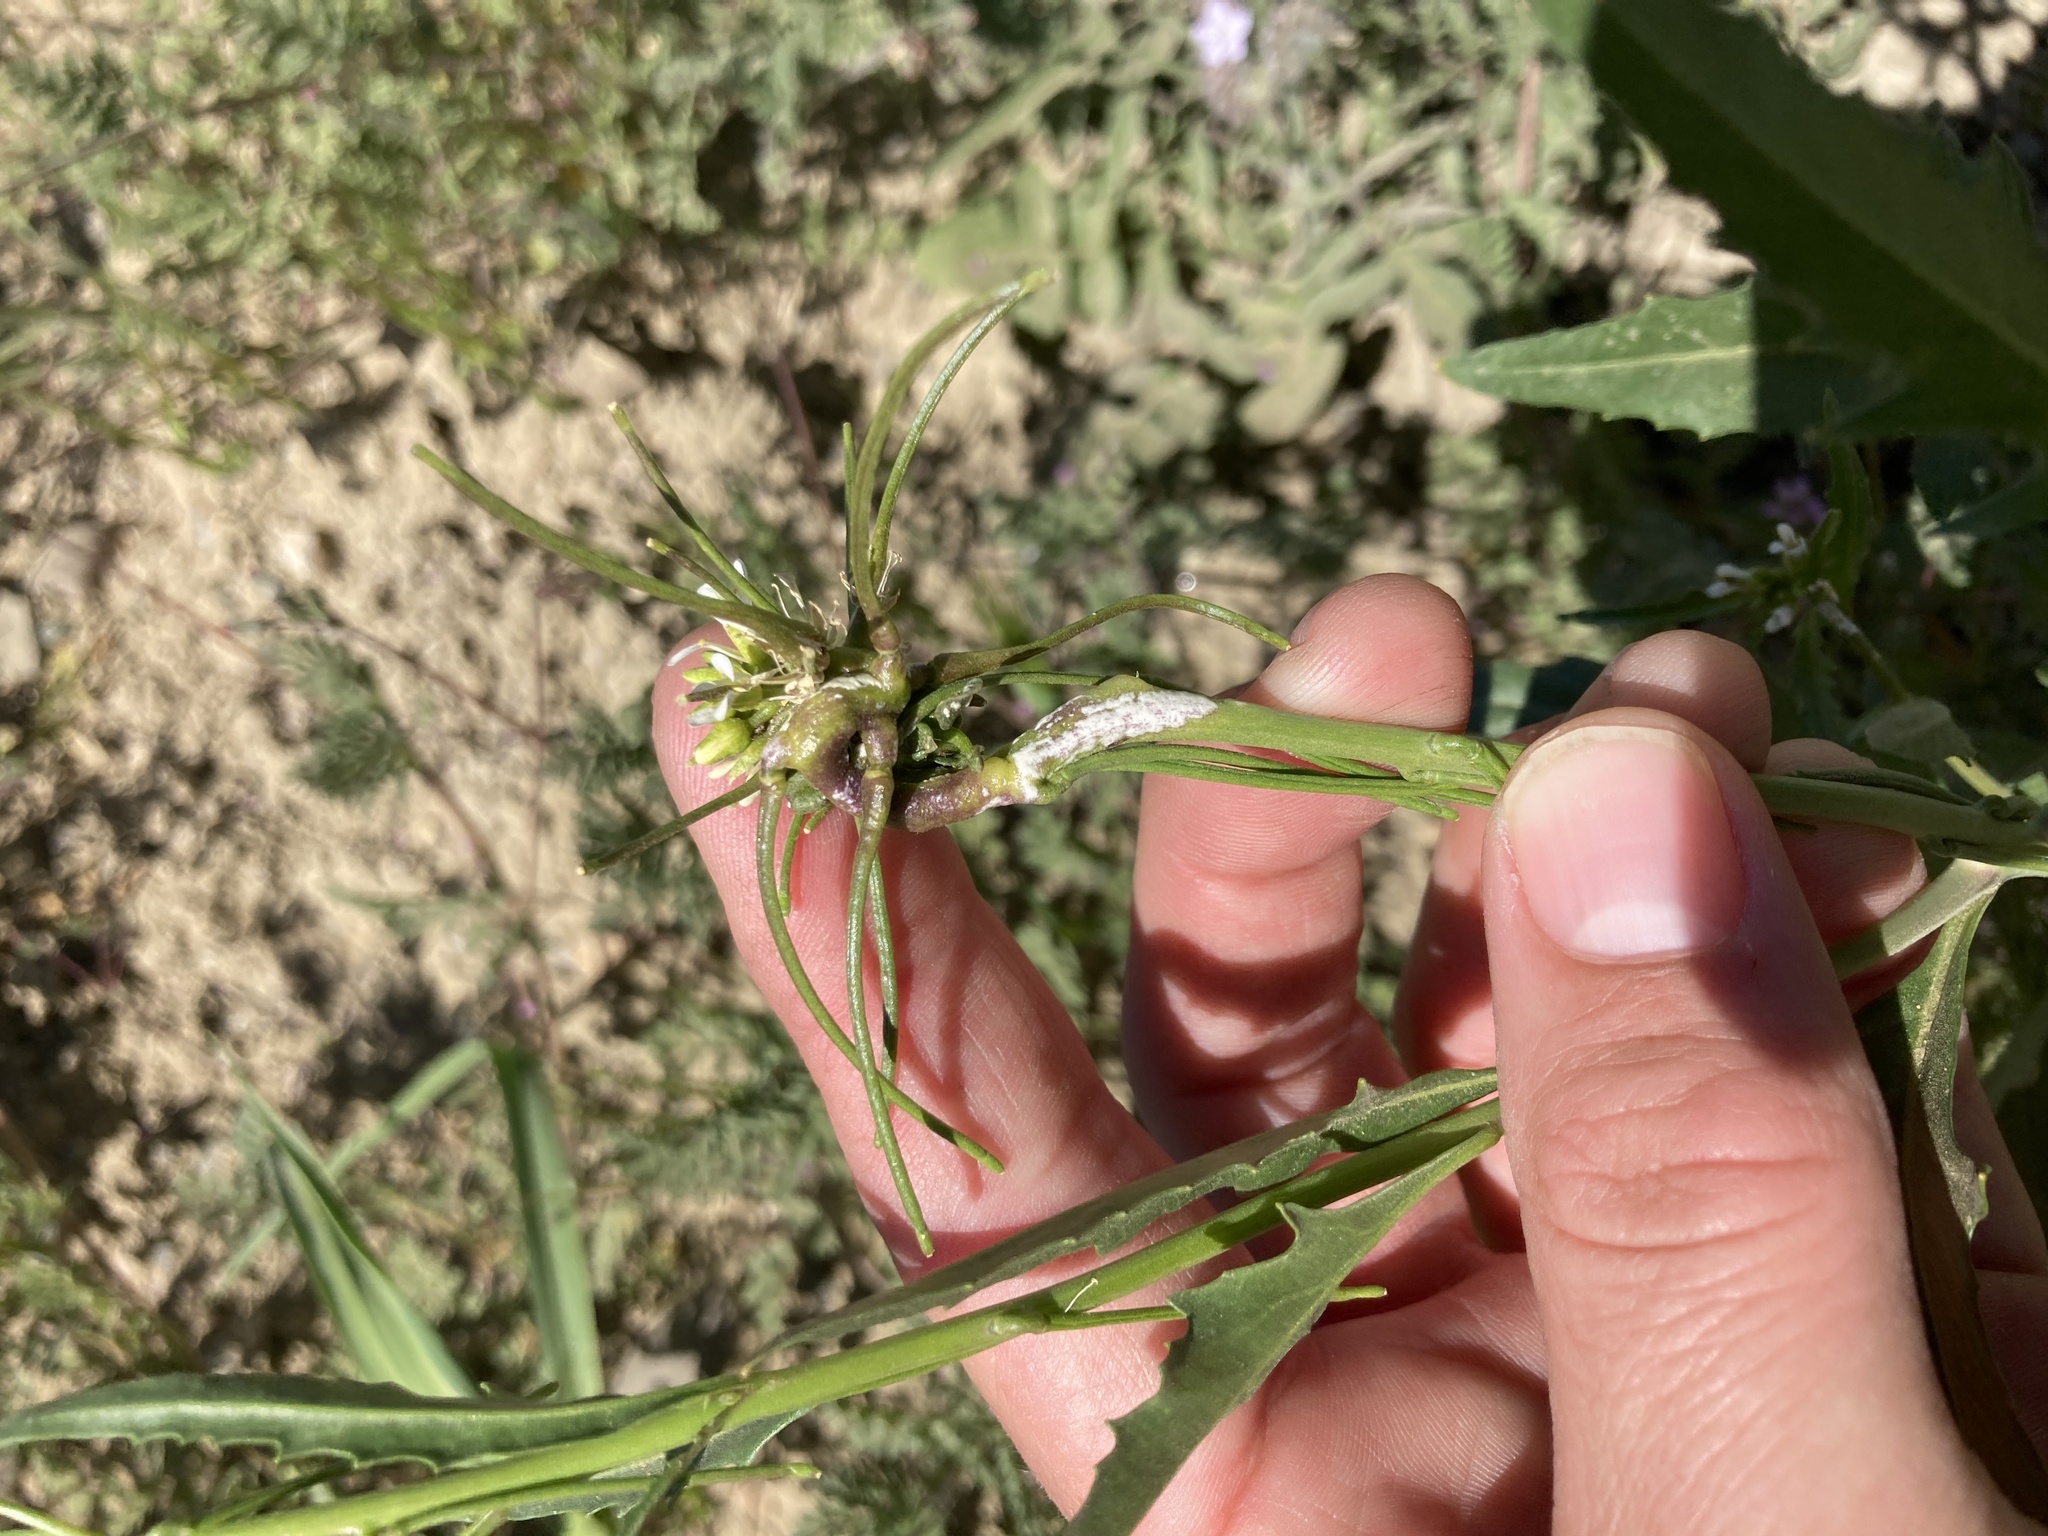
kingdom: Plantae
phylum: Tracheophyta
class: Magnoliopsida
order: Brassicales
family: Brassicaceae
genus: Streptanthus
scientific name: Streptanthus lasiophyllus
